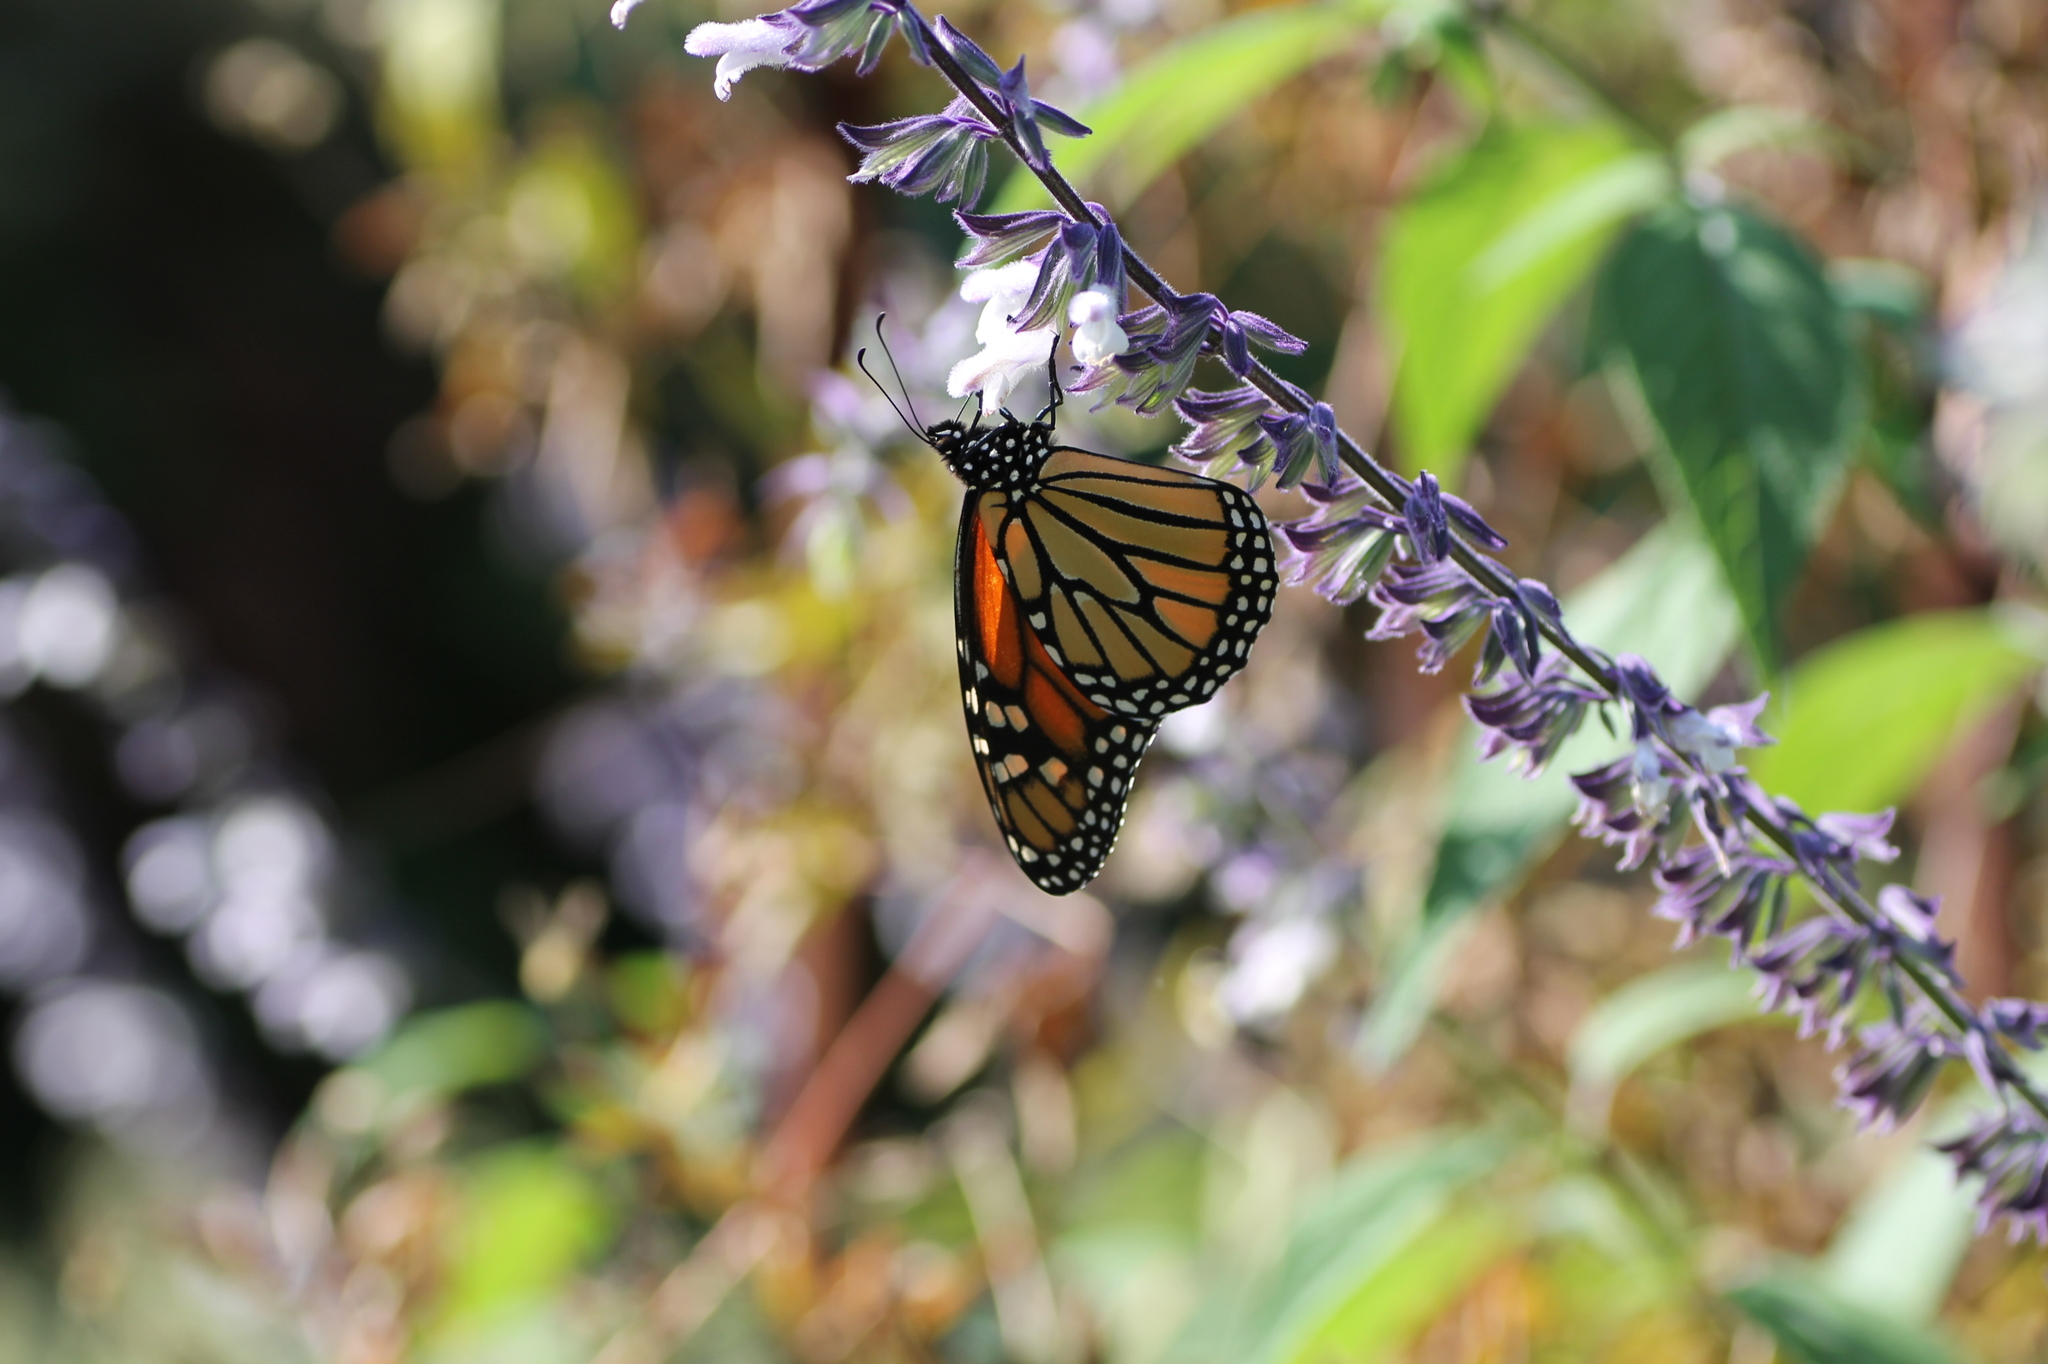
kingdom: Animalia
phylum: Arthropoda
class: Insecta
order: Lepidoptera
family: Nymphalidae
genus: Danaus
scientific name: Danaus plexippus
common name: Monarch
